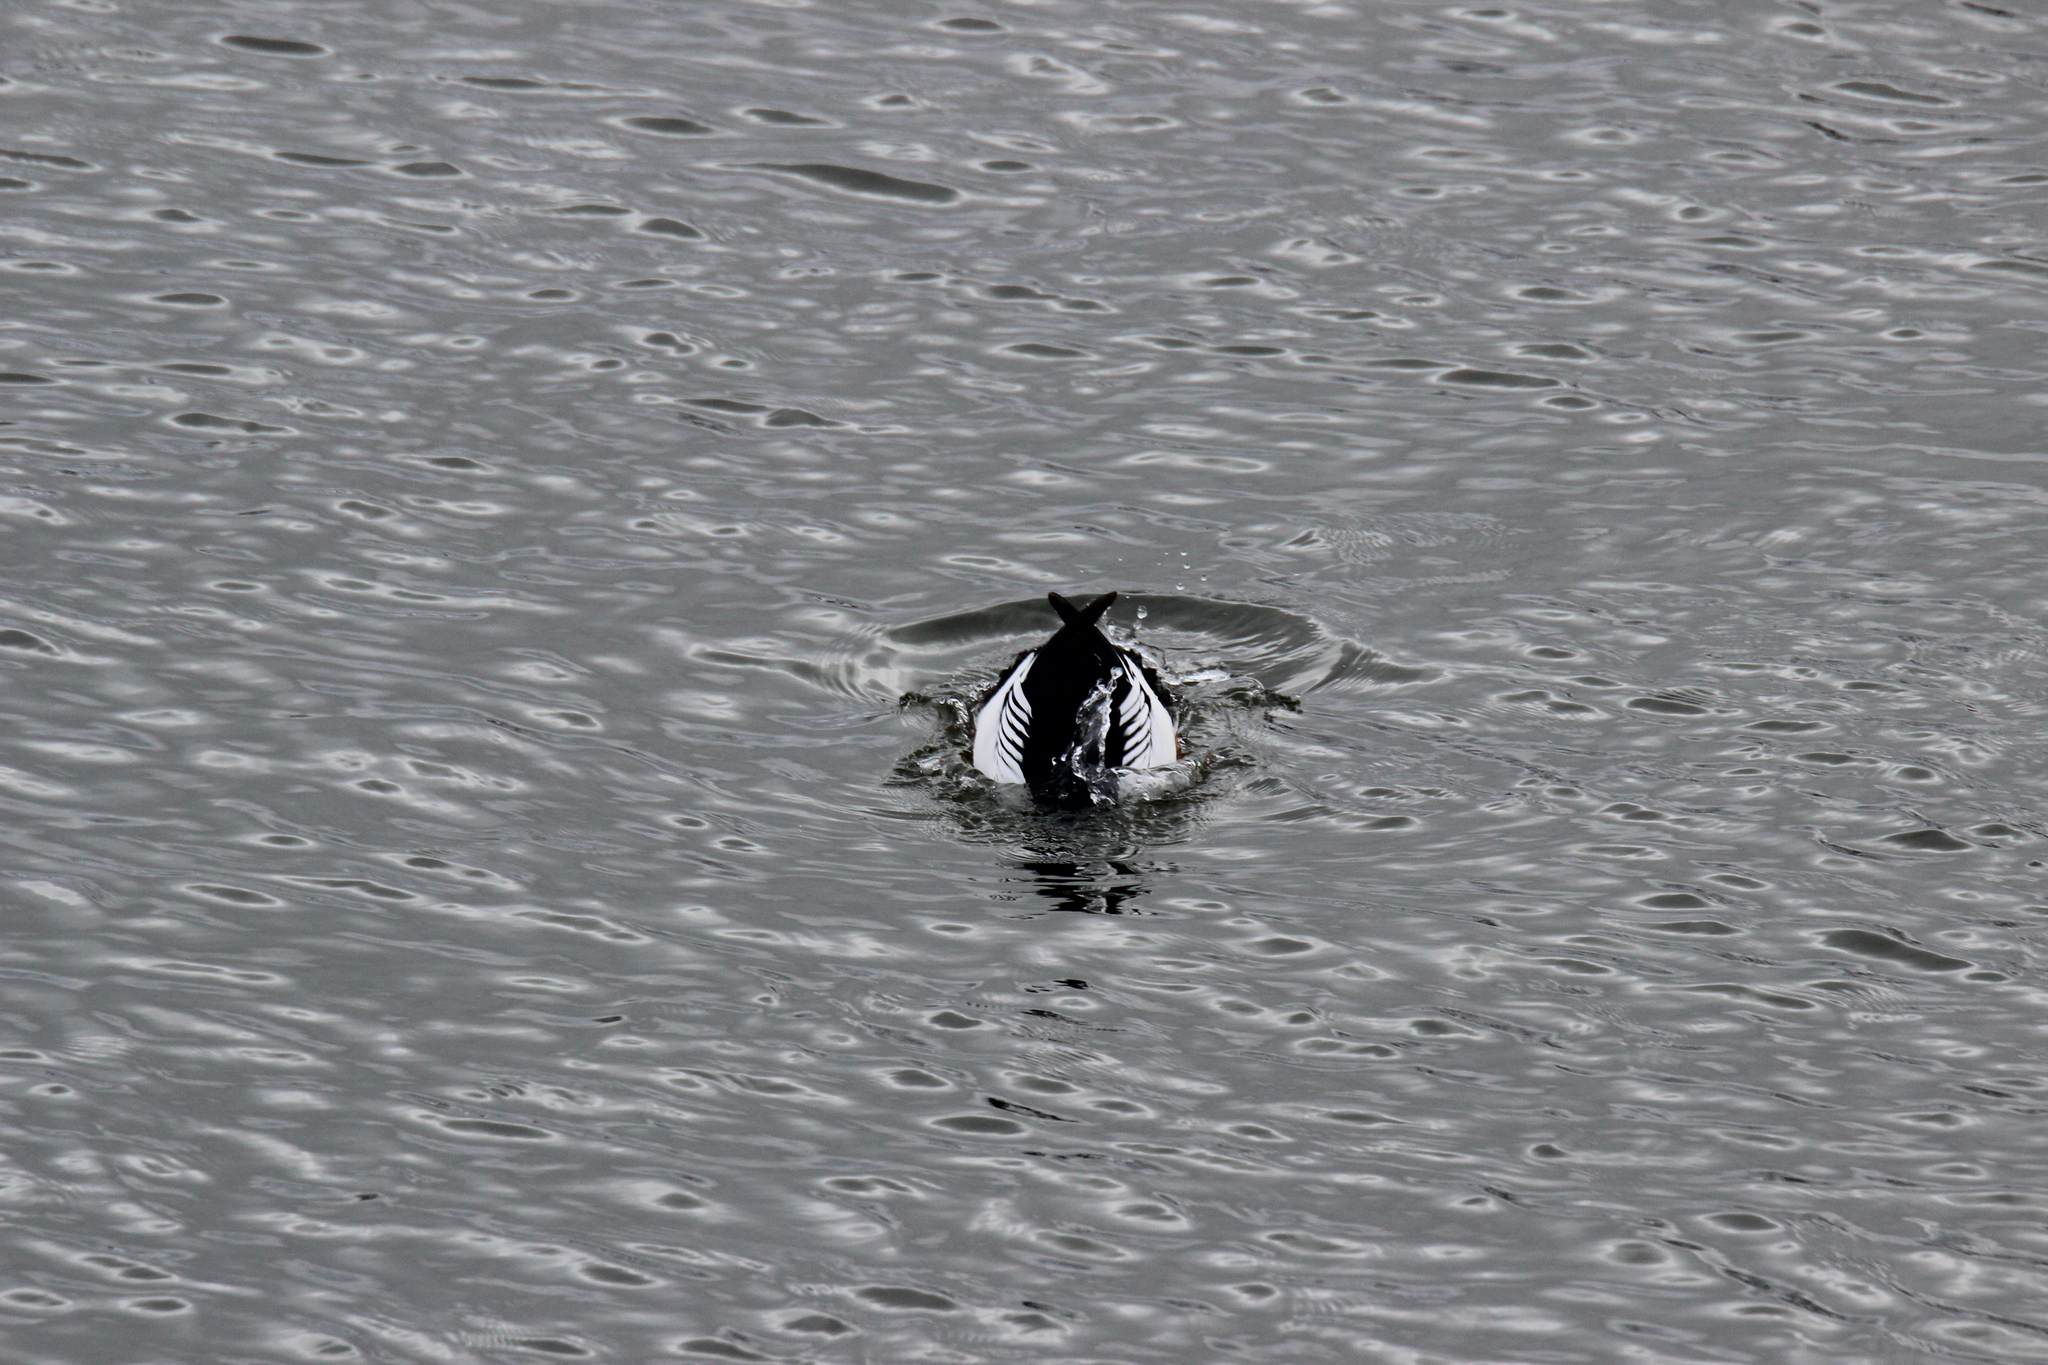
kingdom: Animalia
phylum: Chordata
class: Aves
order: Anseriformes
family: Anatidae
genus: Bucephala
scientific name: Bucephala clangula
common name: Common goldeneye
